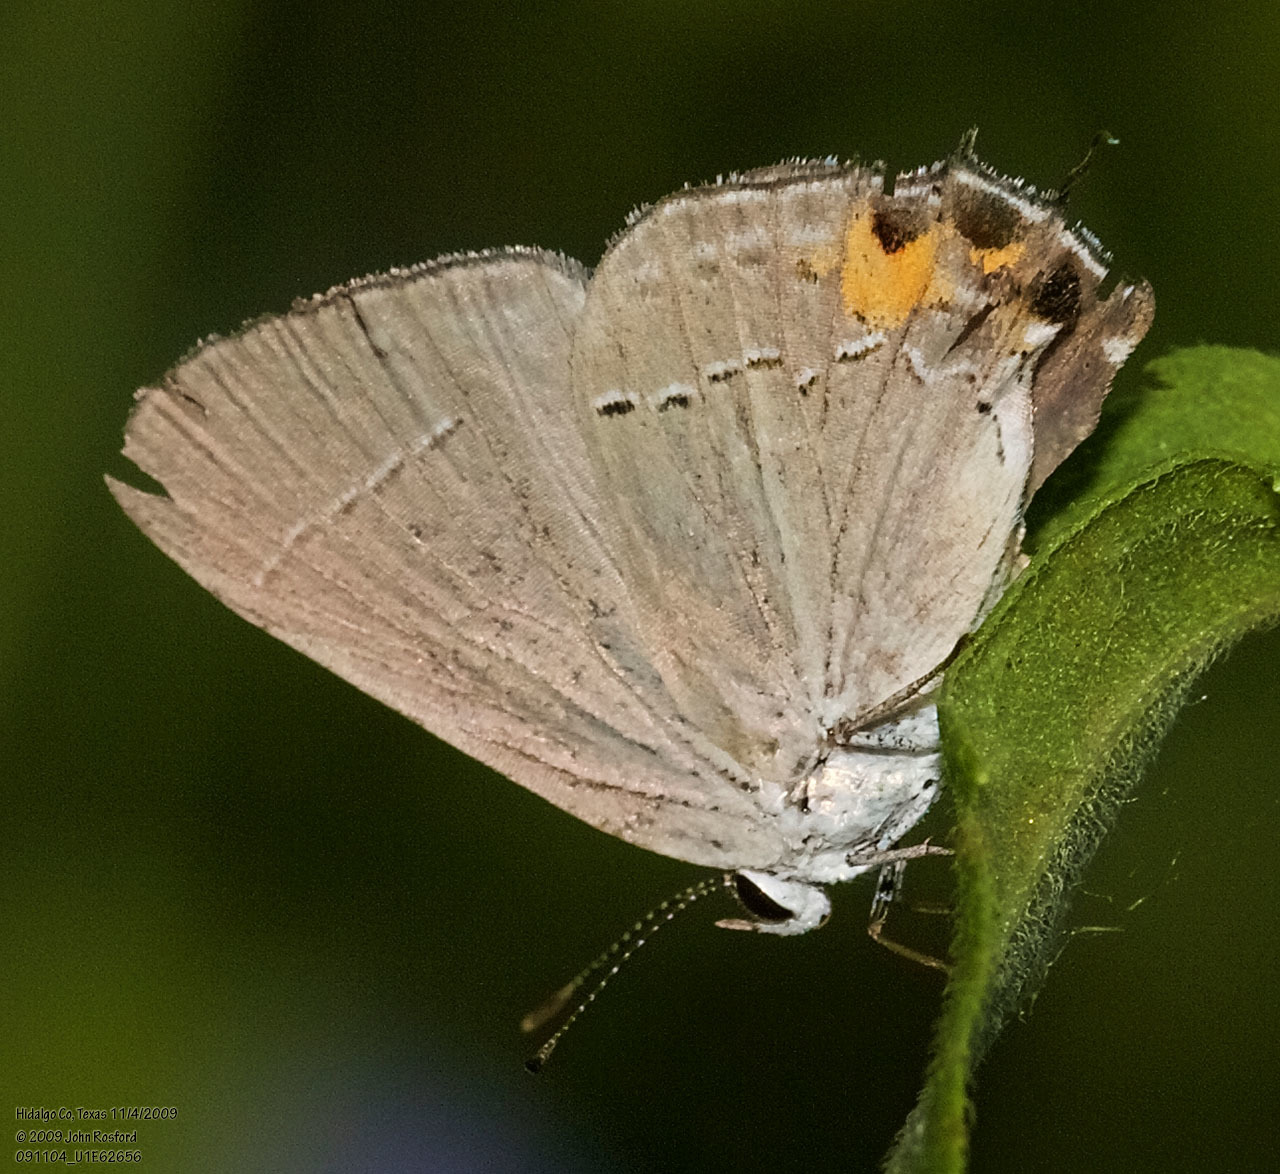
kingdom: Animalia
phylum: Arthropoda
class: Insecta
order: Lepidoptera
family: Lycaenidae
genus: Strymon
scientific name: Strymon melinus
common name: Gray hairstreak
